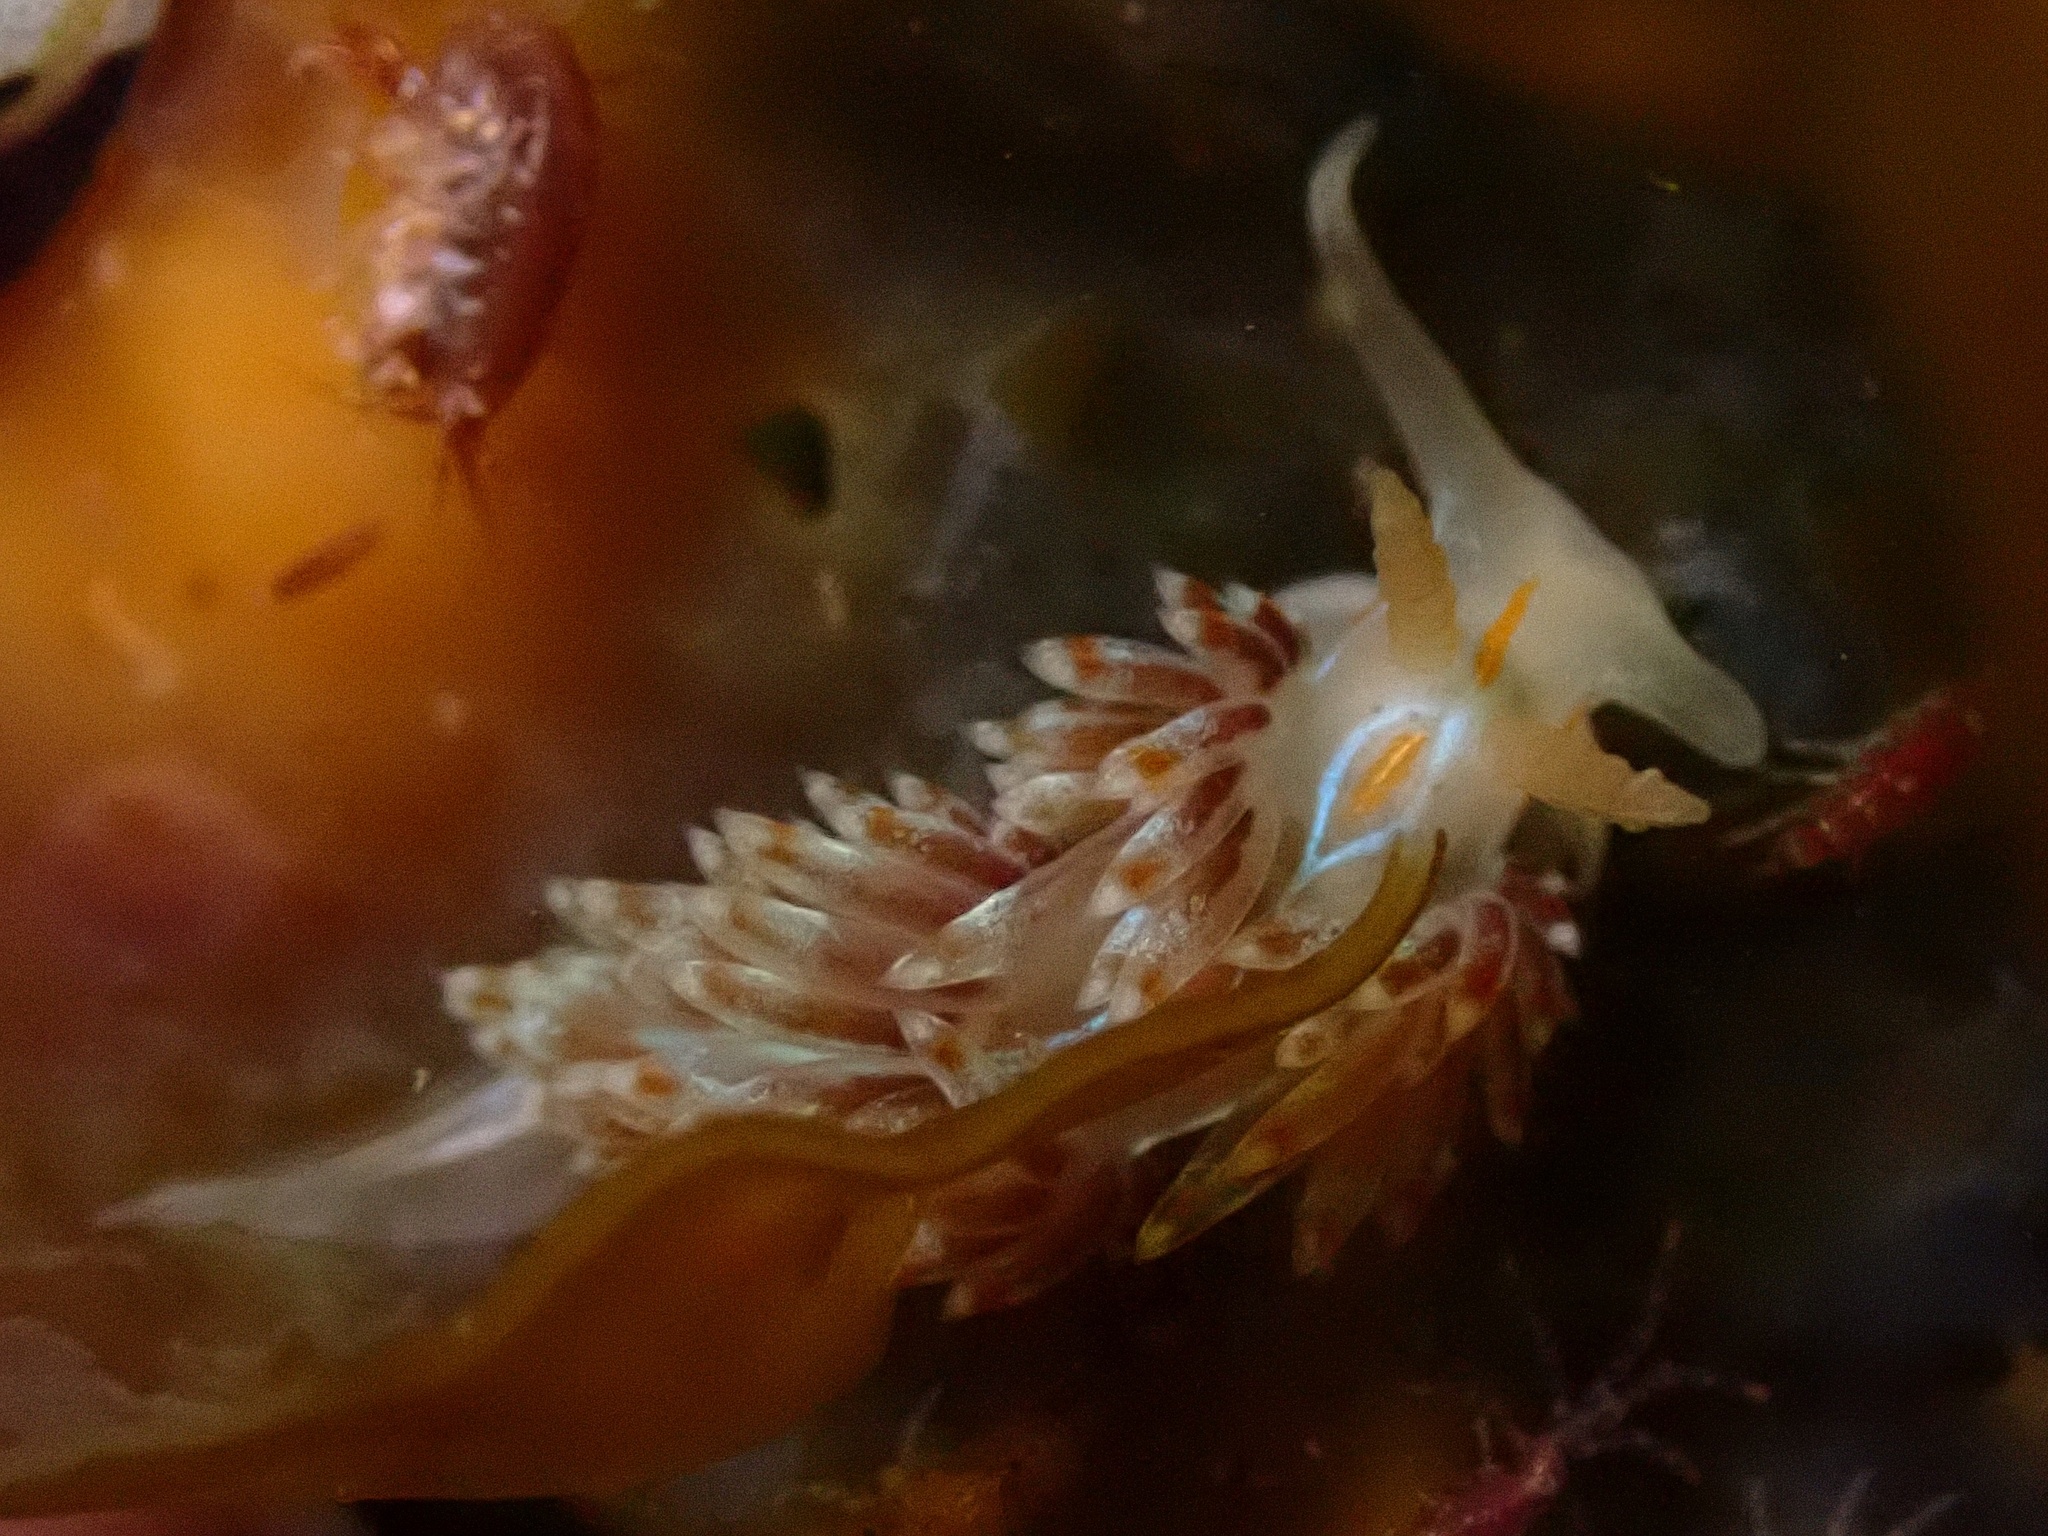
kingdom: Animalia
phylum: Mollusca
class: Gastropoda
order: Nudibranchia
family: Myrrhinidae
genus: Hermissenda
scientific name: Hermissenda opalescens
